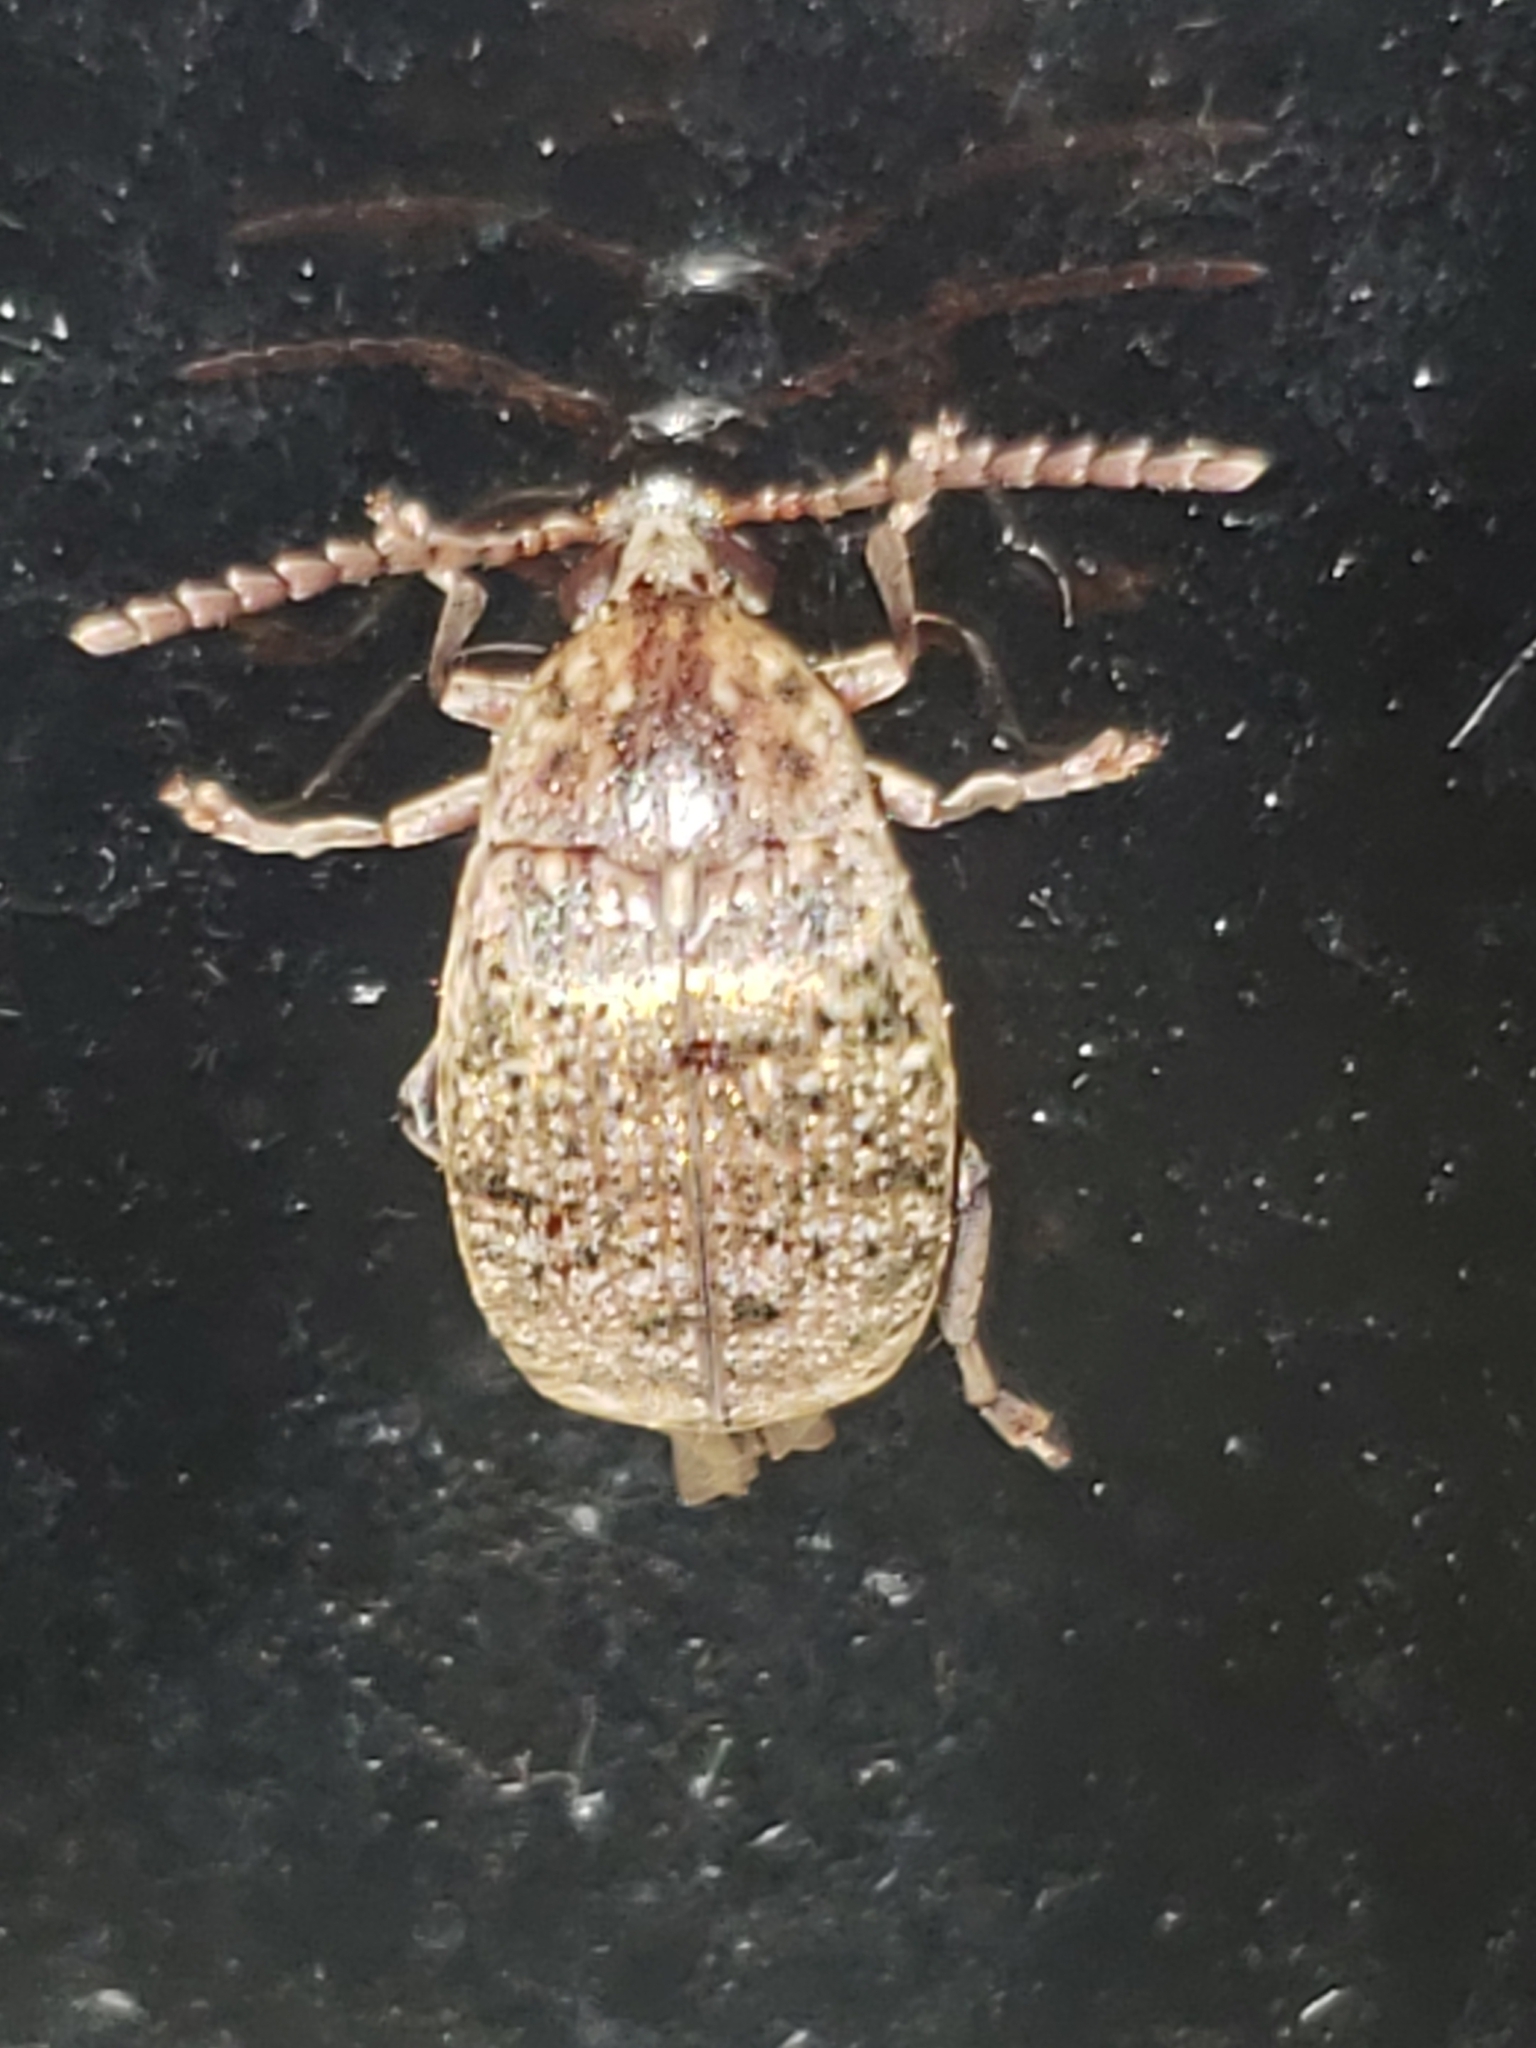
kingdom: Animalia
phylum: Arthropoda
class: Insecta
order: Coleoptera
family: Chrysomelidae
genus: Amblycerus
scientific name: Amblycerus robiniae
